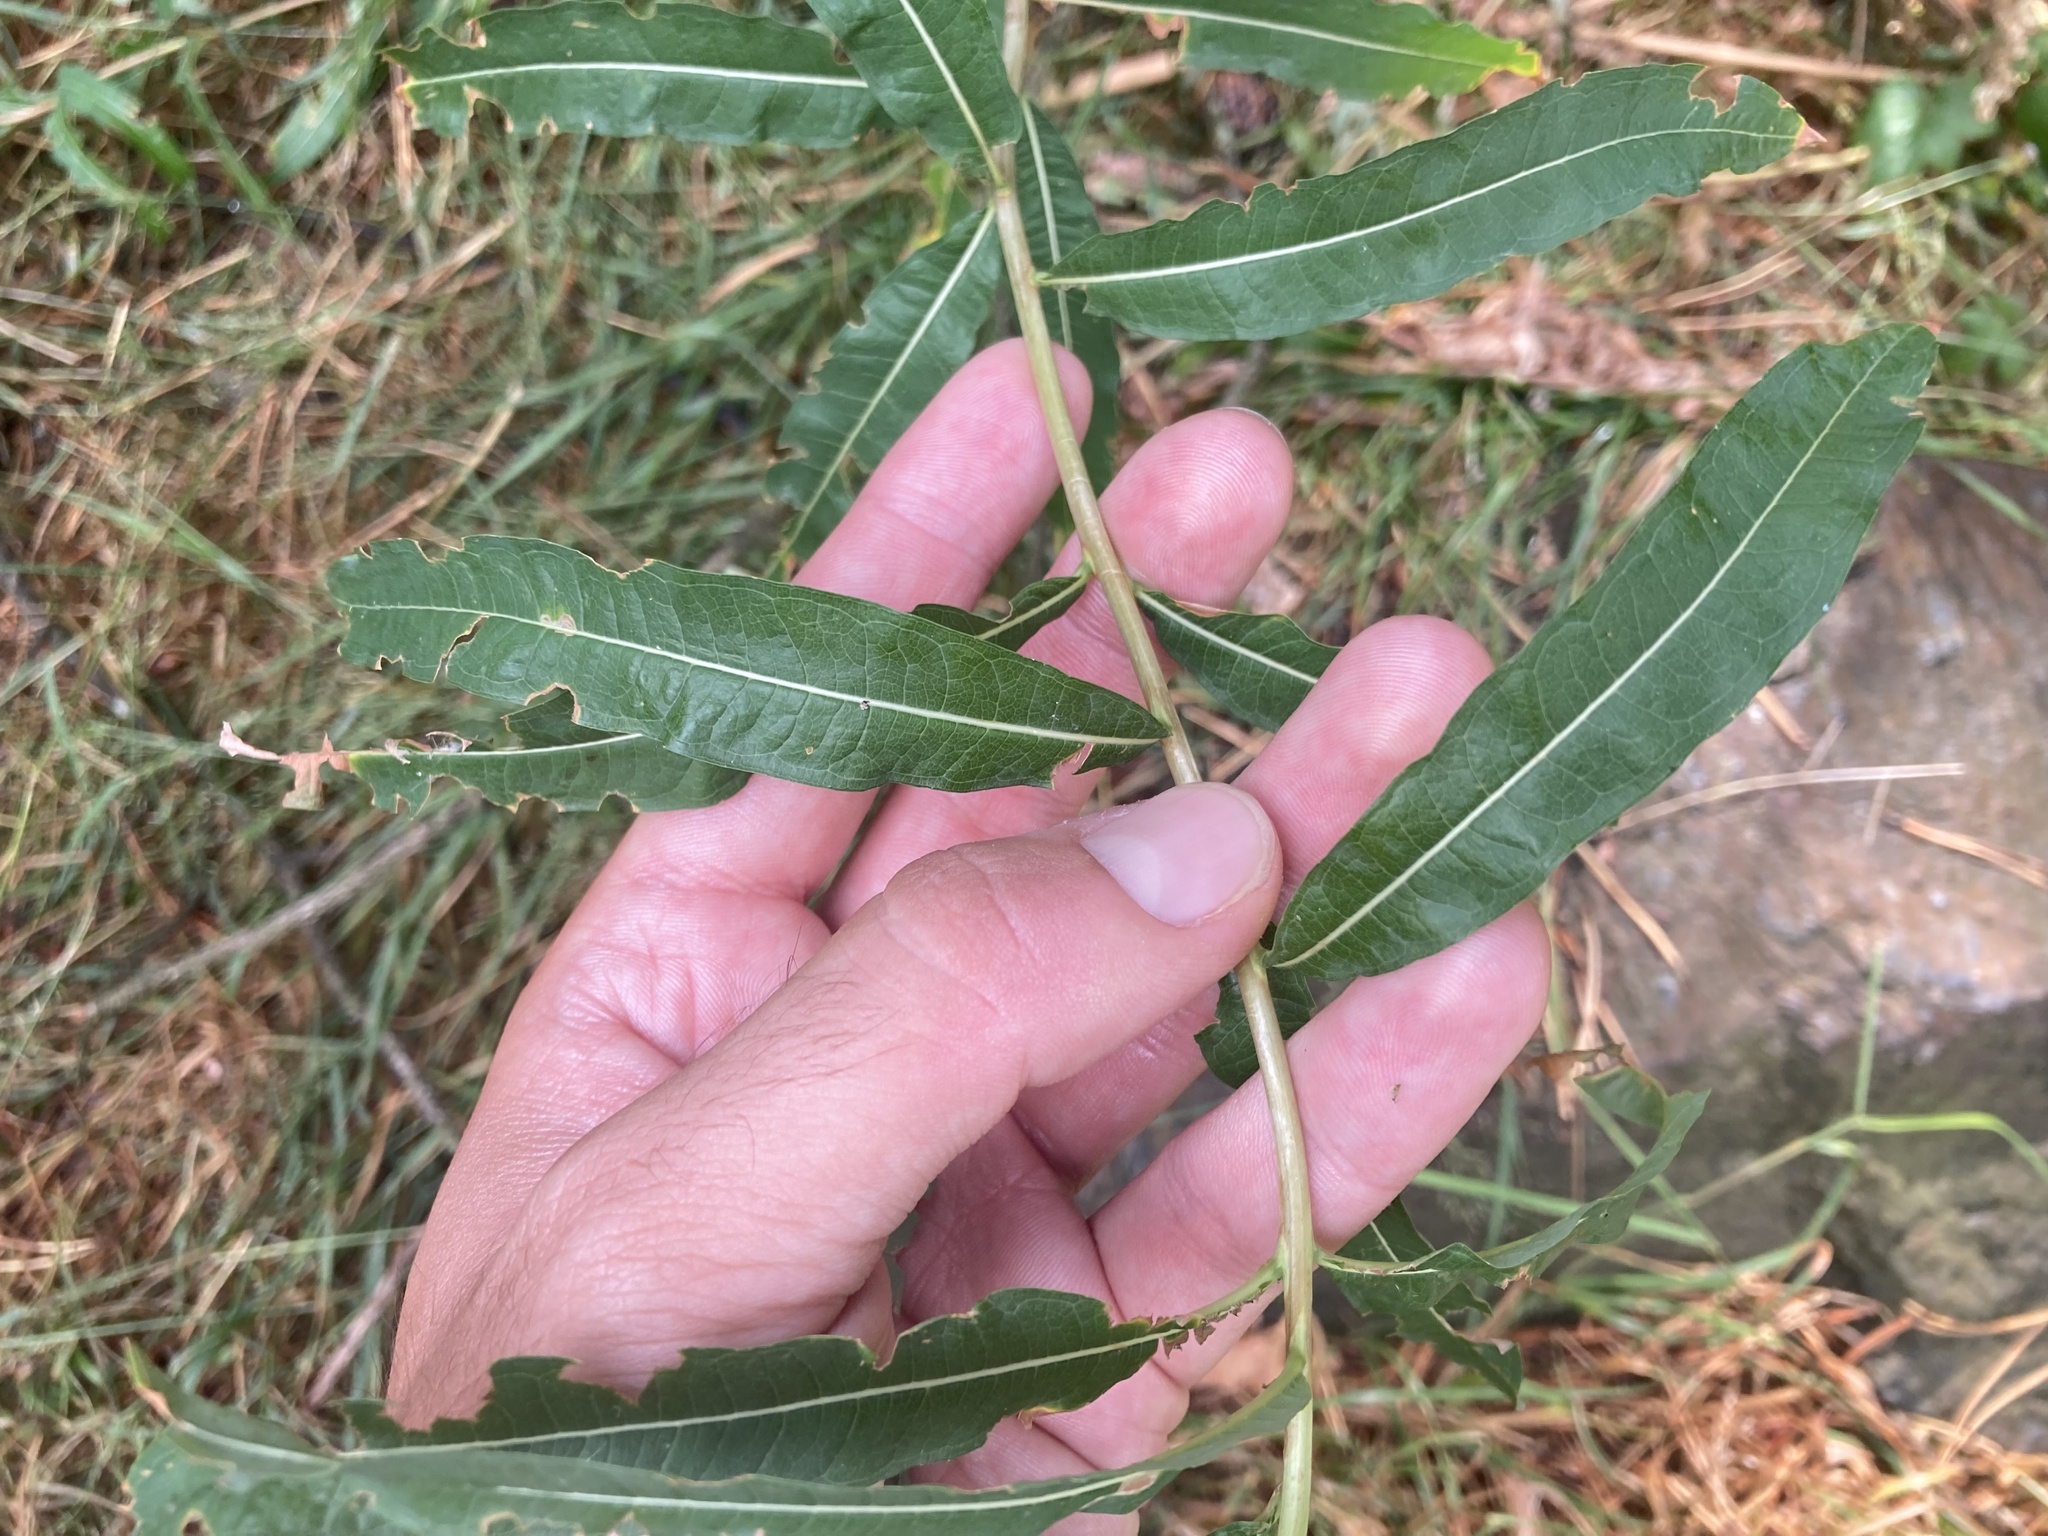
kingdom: Plantae
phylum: Tracheophyta
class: Magnoliopsida
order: Myrtales
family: Onagraceae
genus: Chamaenerion
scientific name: Chamaenerion angustifolium
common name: Fireweed
